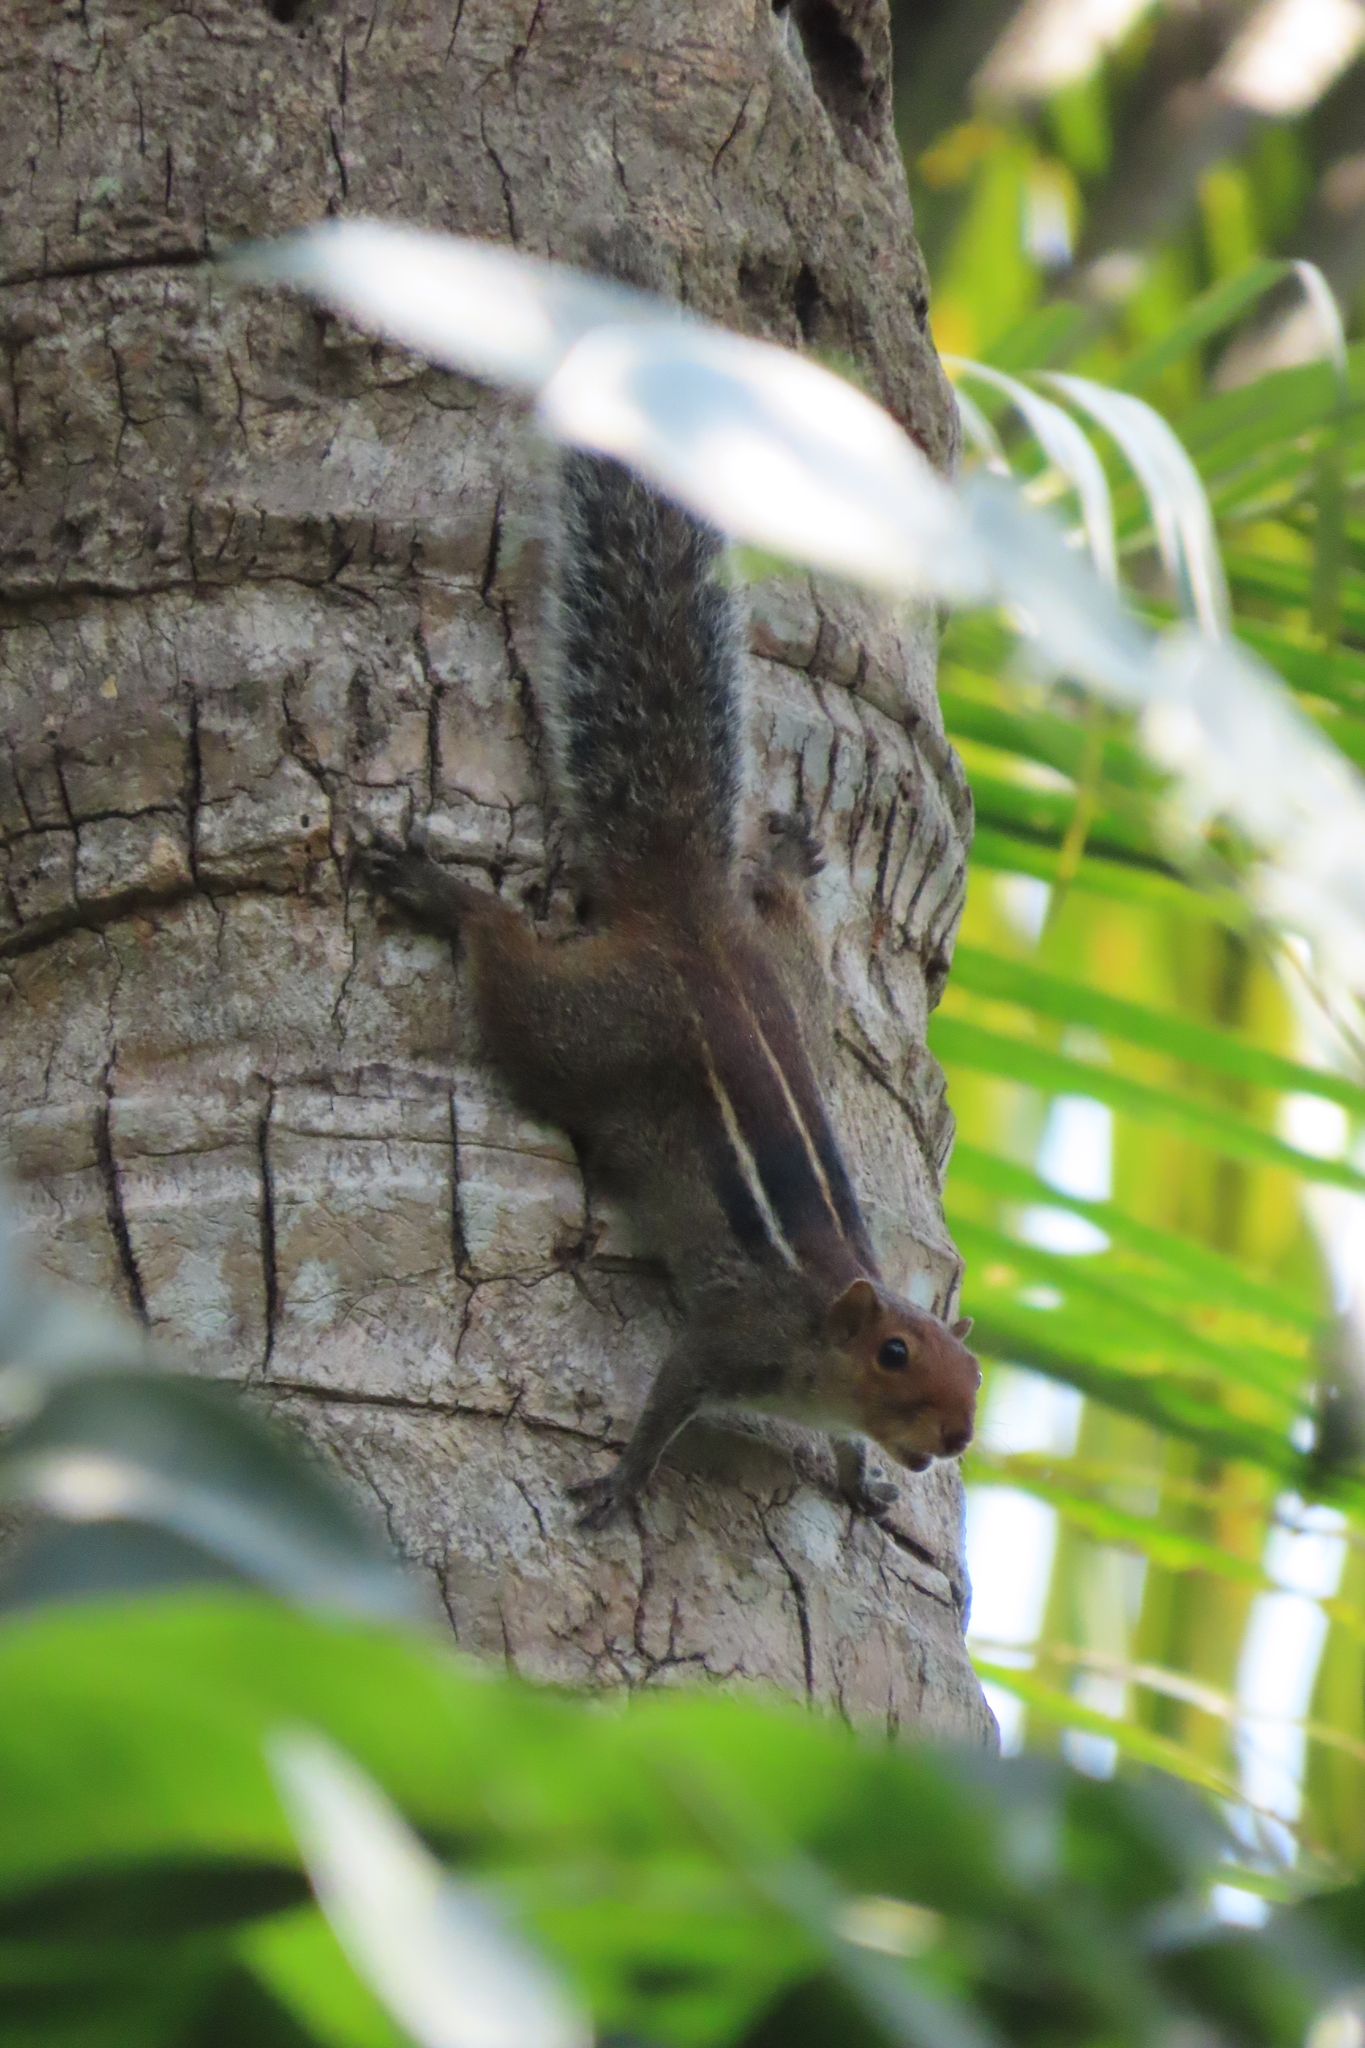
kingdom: Animalia
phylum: Chordata
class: Mammalia
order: Rodentia
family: Sciuridae
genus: Funambulus
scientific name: Funambulus tristriatus
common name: Jungle palm squirrel
